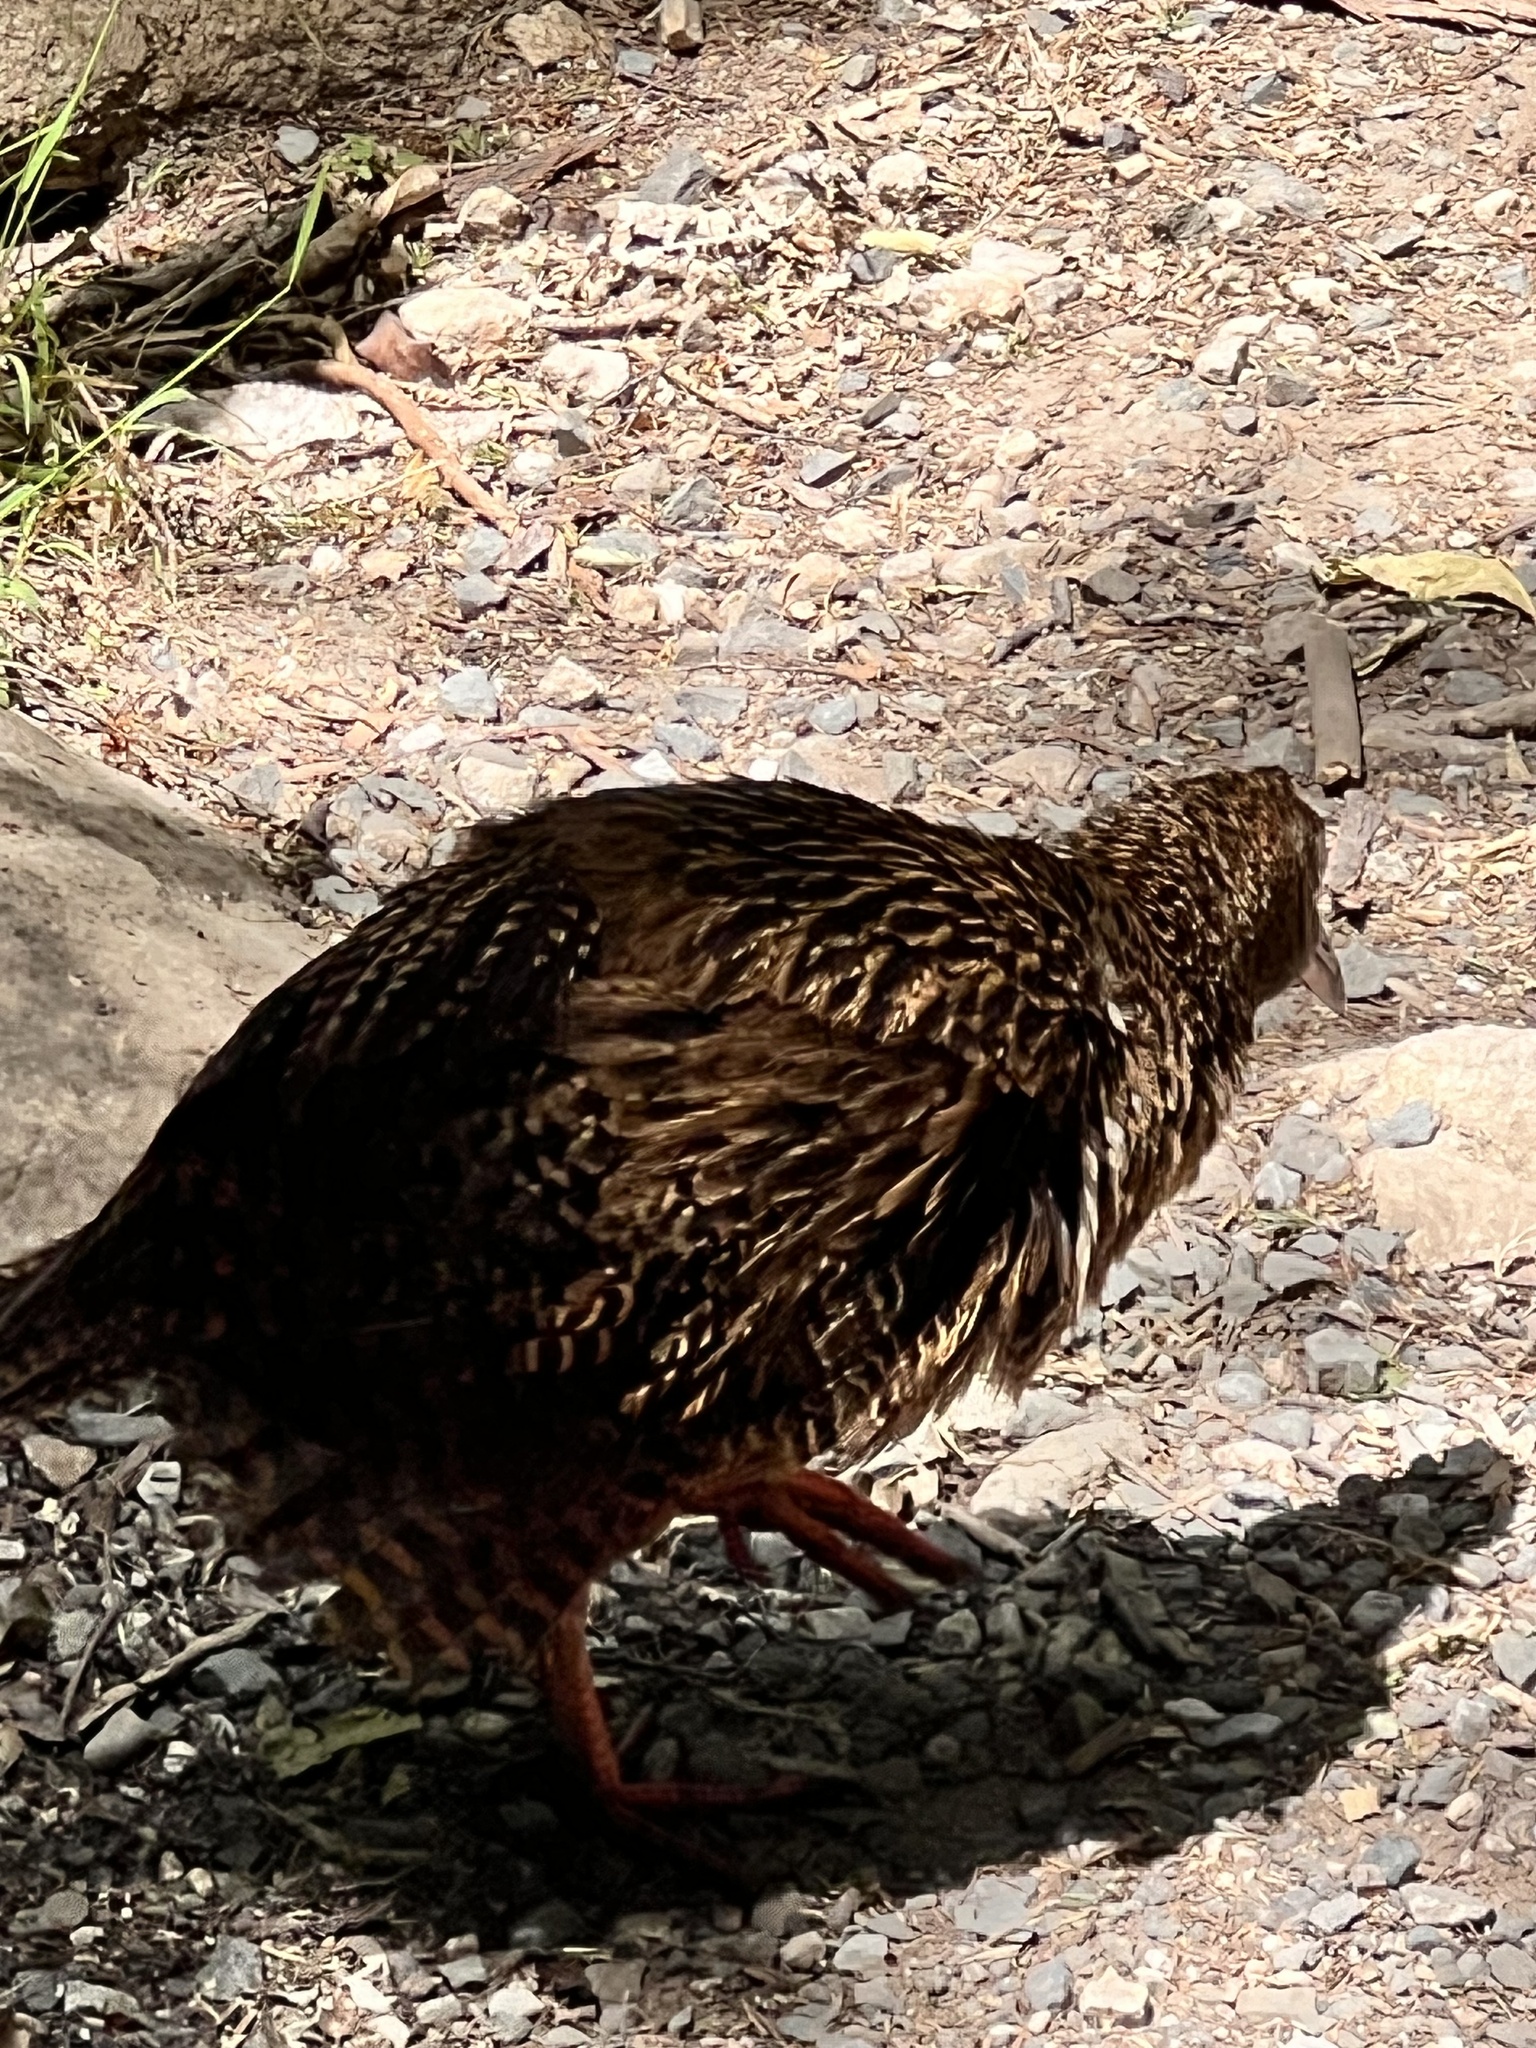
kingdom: Animalia
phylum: Chordata
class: Aves
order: Gruiformes
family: Rallidae
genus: Gallirallus
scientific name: Gallirallus australis
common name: Weka
